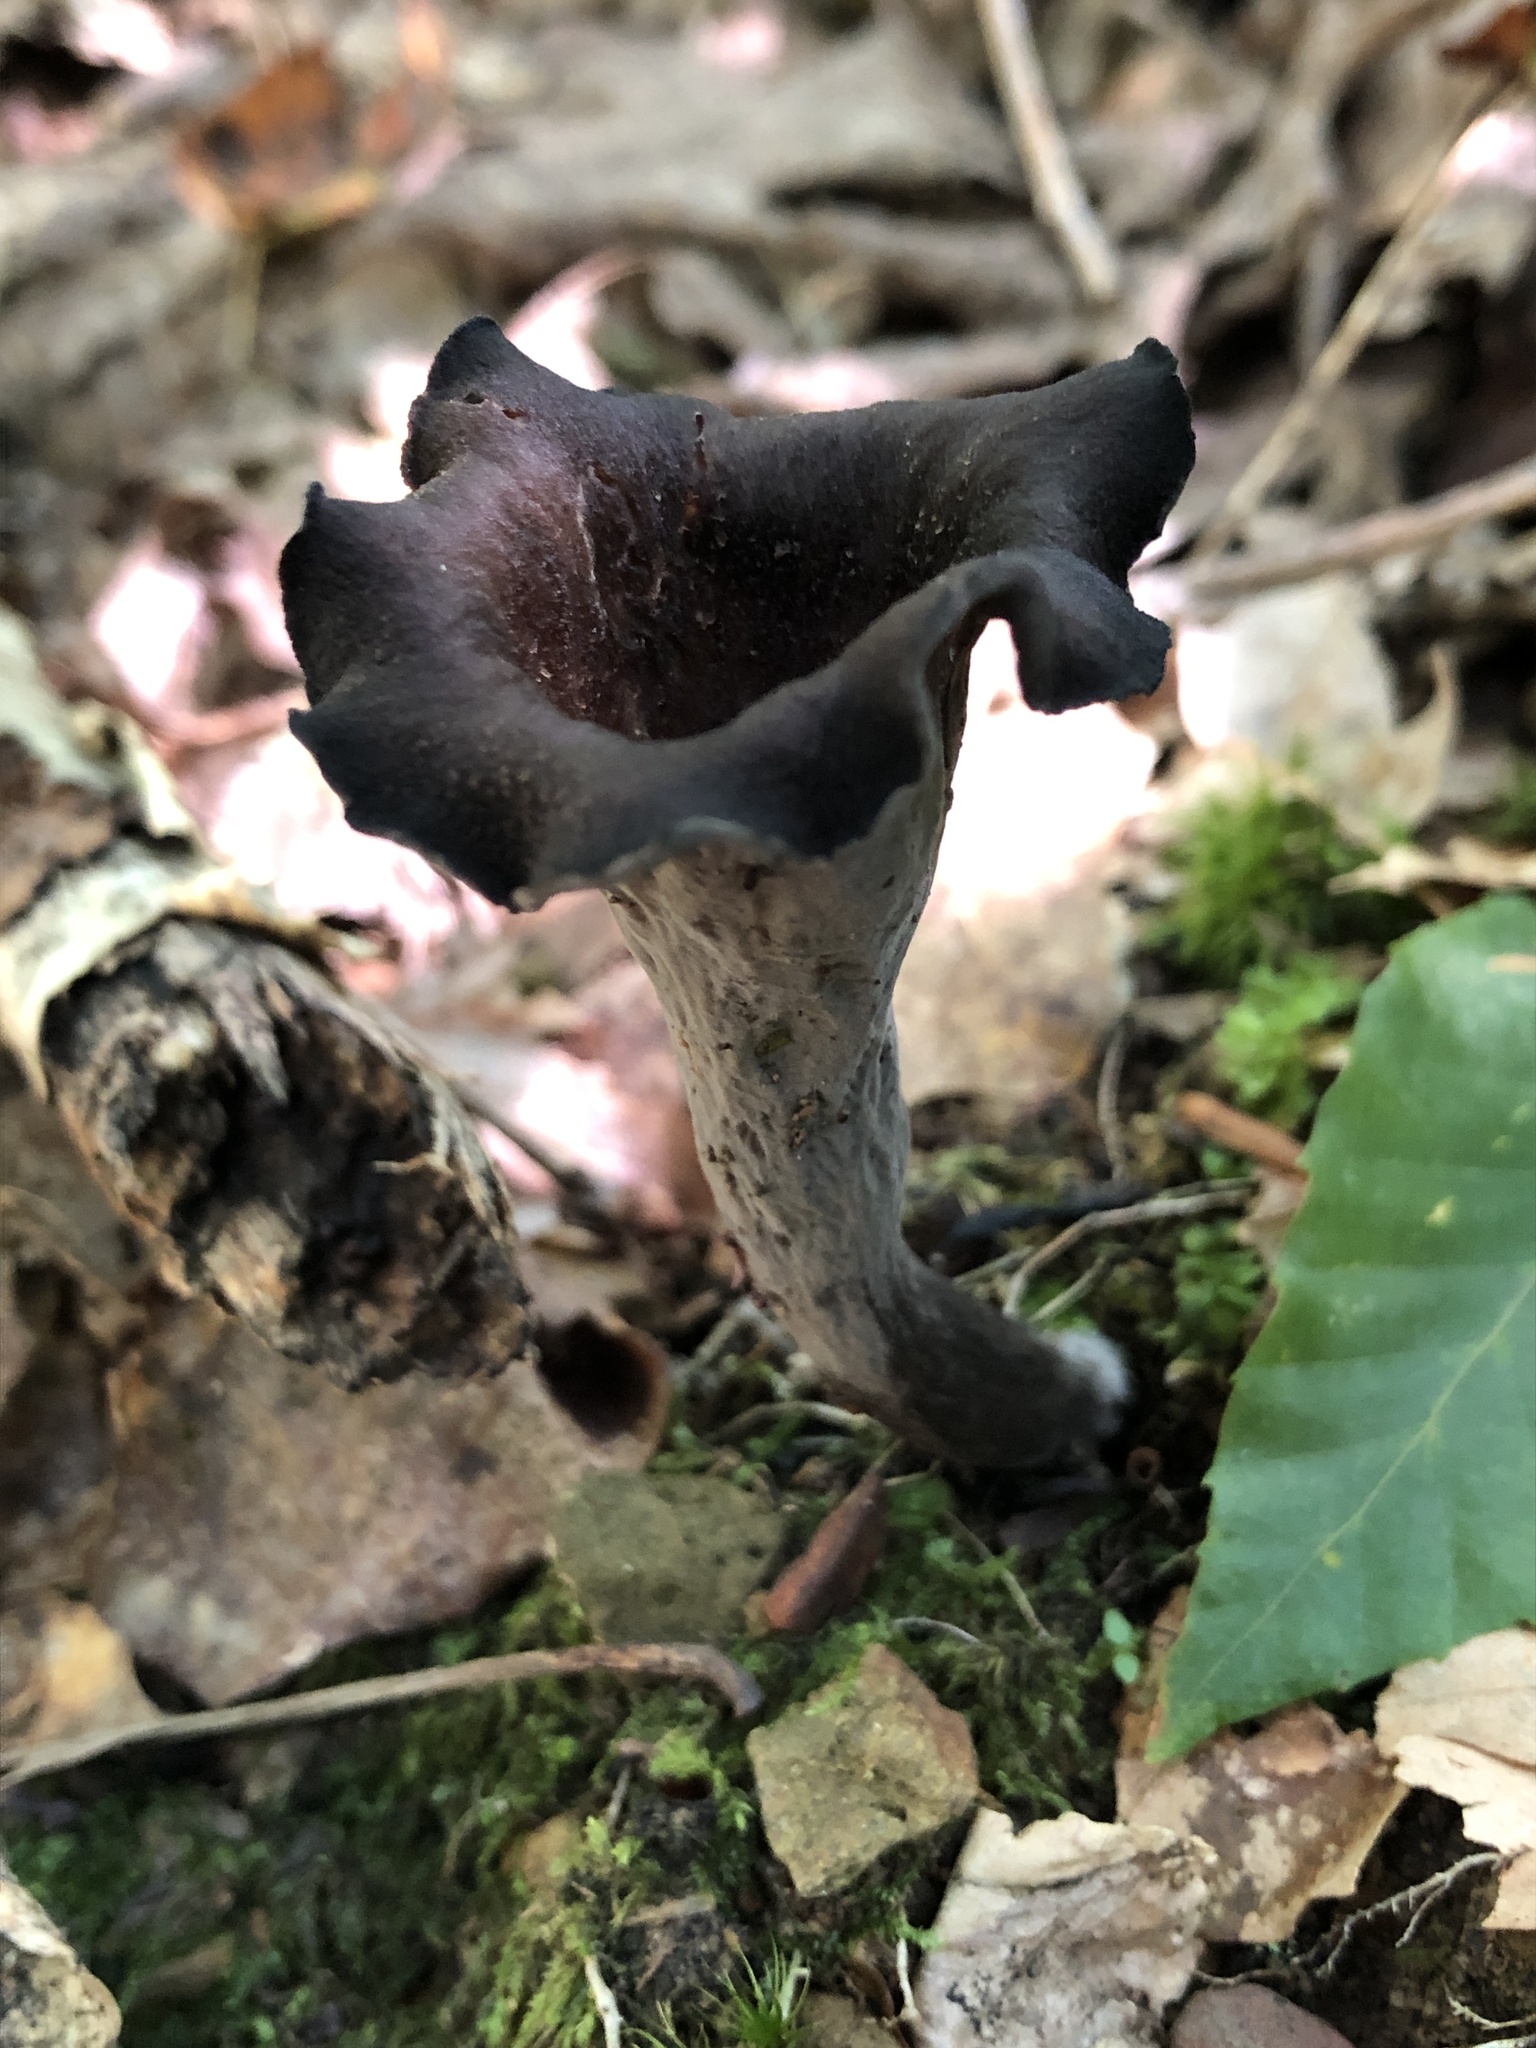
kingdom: Fungi
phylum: Basidiomycota
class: Agaricomycetes
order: Cantharellales
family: Hydnaceae
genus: Craterellus
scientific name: Craterellus cornucopioides
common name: Horn of plenty
